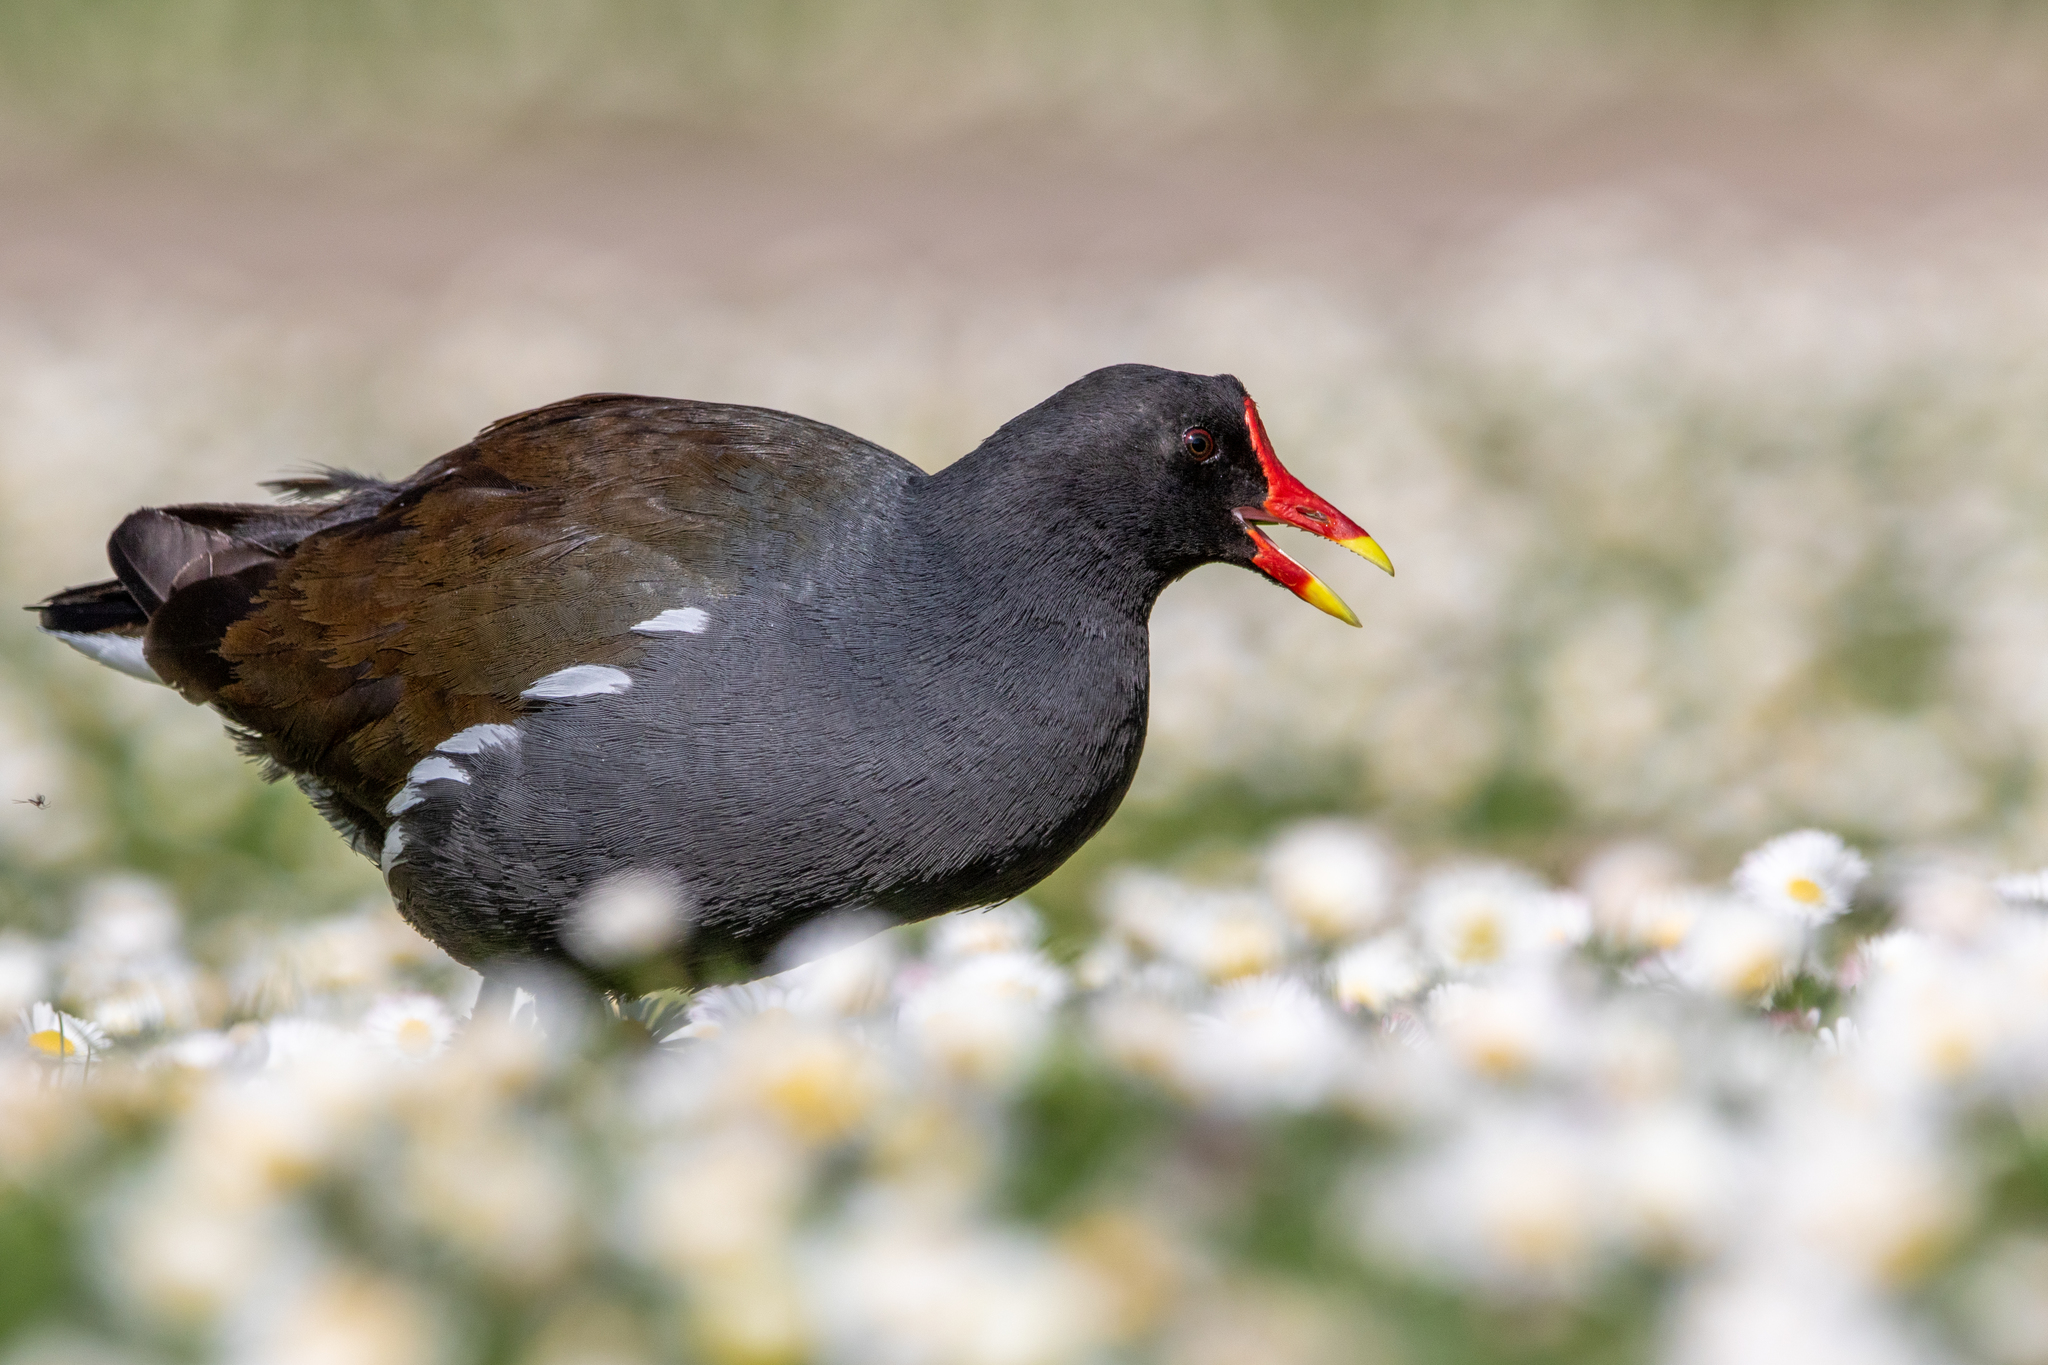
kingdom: Animalia
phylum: Chordata
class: Aves
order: Gruiformes
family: Rallidae
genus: Gallinula
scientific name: Gallinula chloropus
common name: Common moorhen
